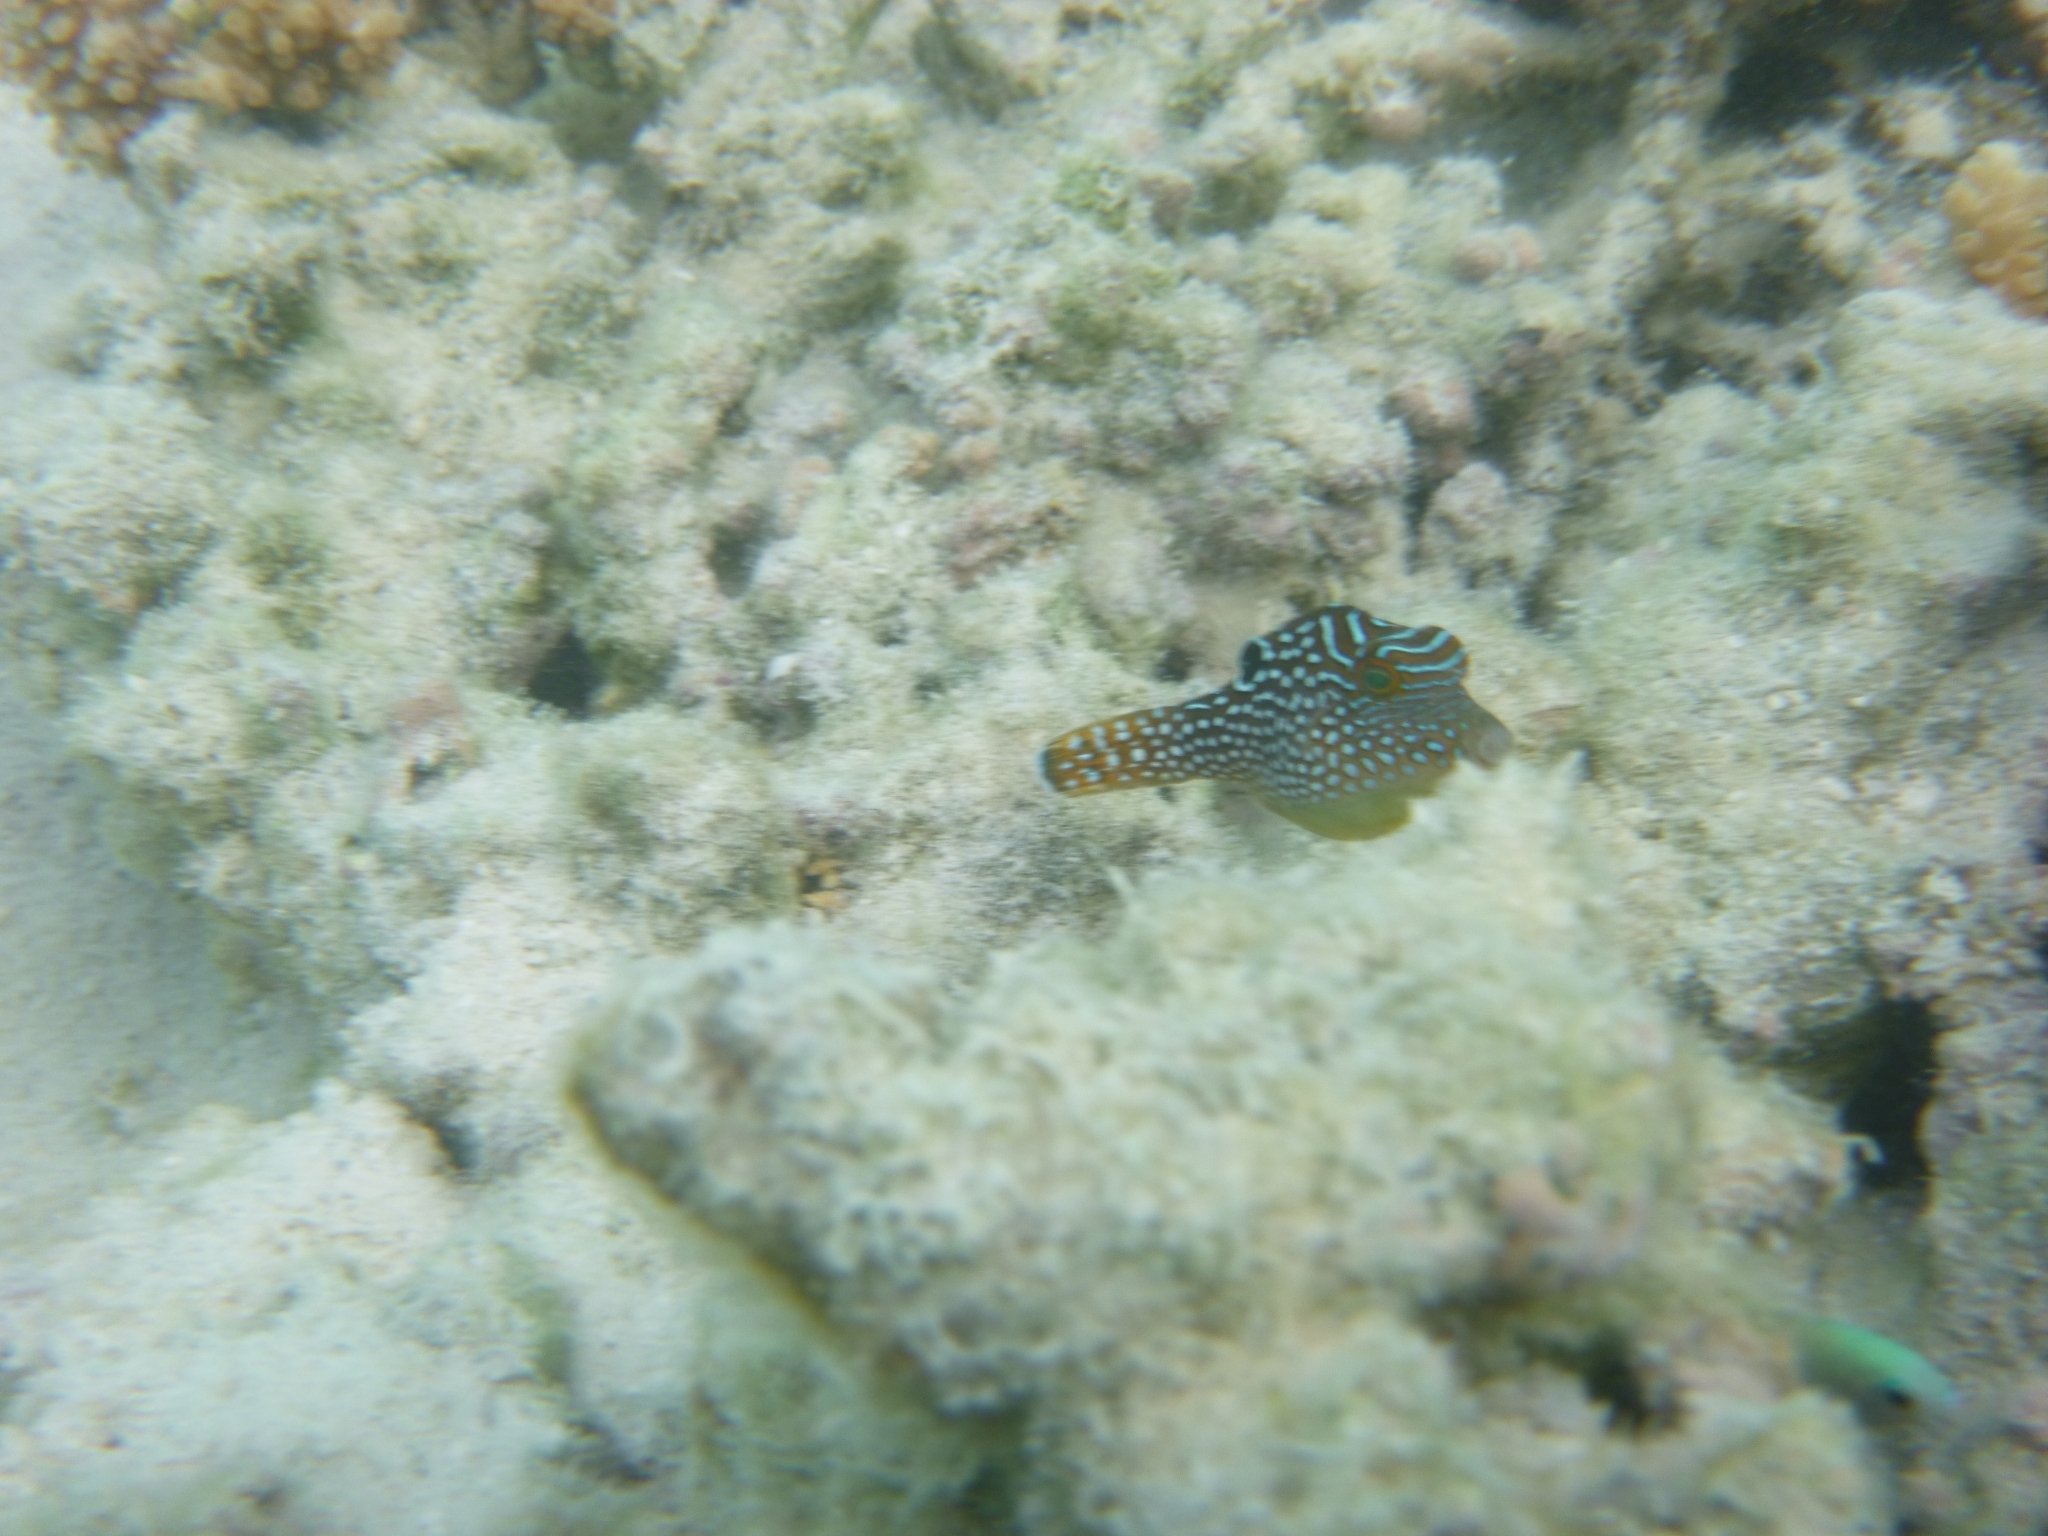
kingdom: Animalia
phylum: Chordata
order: Tetraodontiformes
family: Tetraodontidae
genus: Canthigaster
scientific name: Canthigaster solandri
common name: False-eye toby
